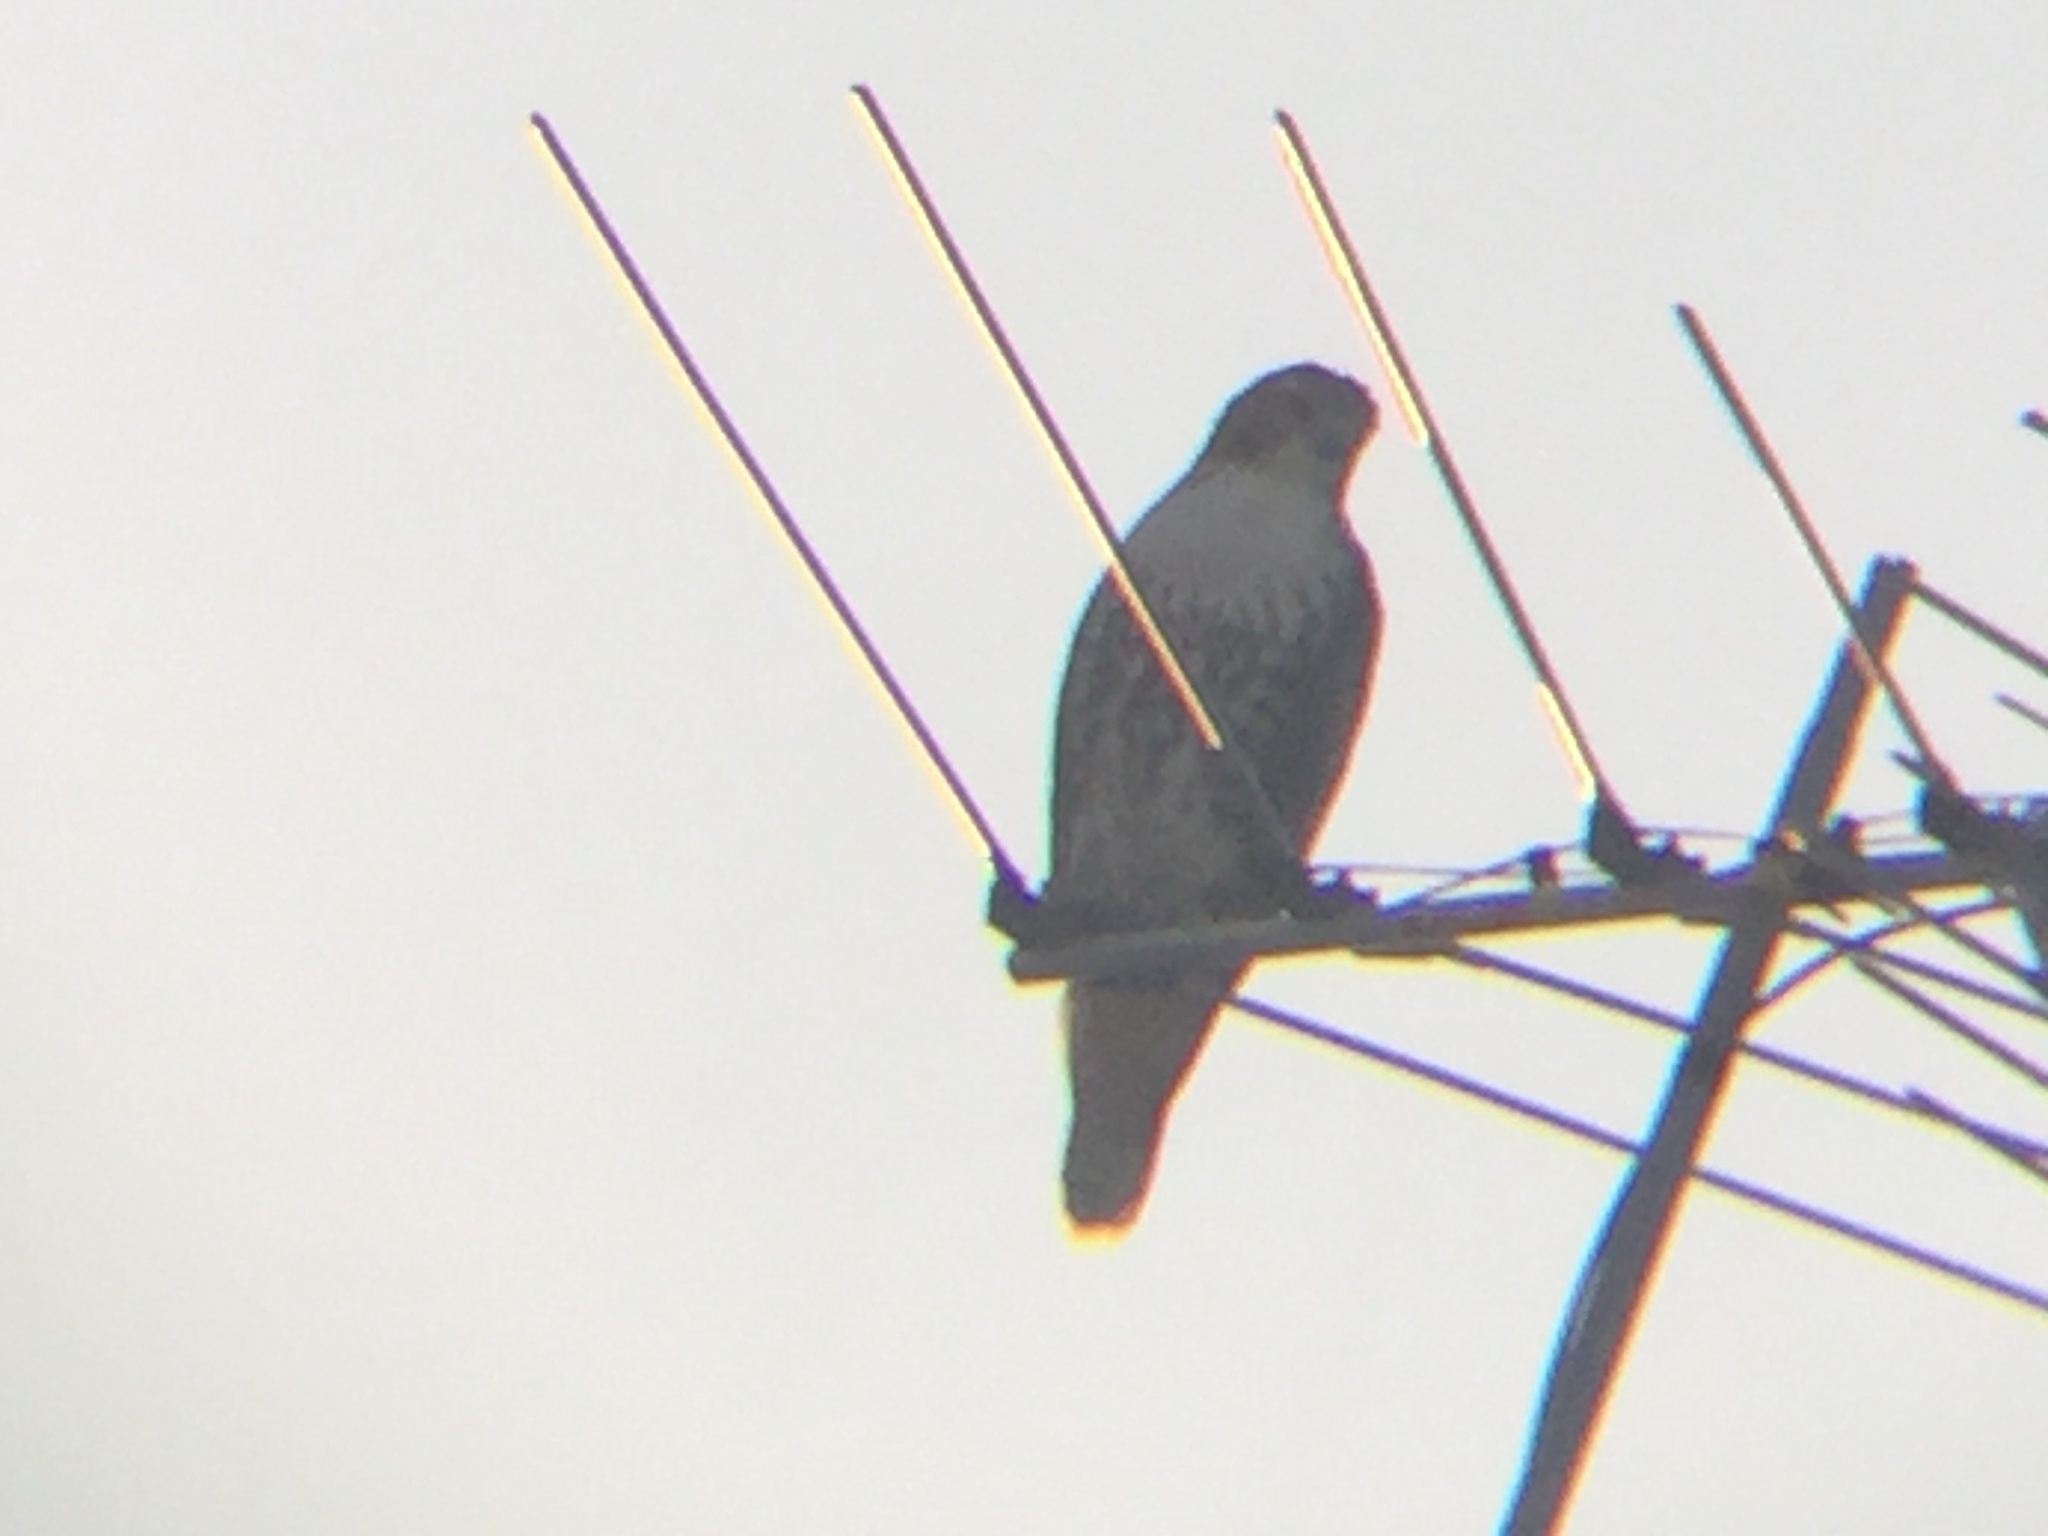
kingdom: Animalia
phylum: Chordata
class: Aves
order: Accipitriformes
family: Accipitridae
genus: Buteo
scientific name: Buteo jamaicensis
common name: Red-tailed hawk
